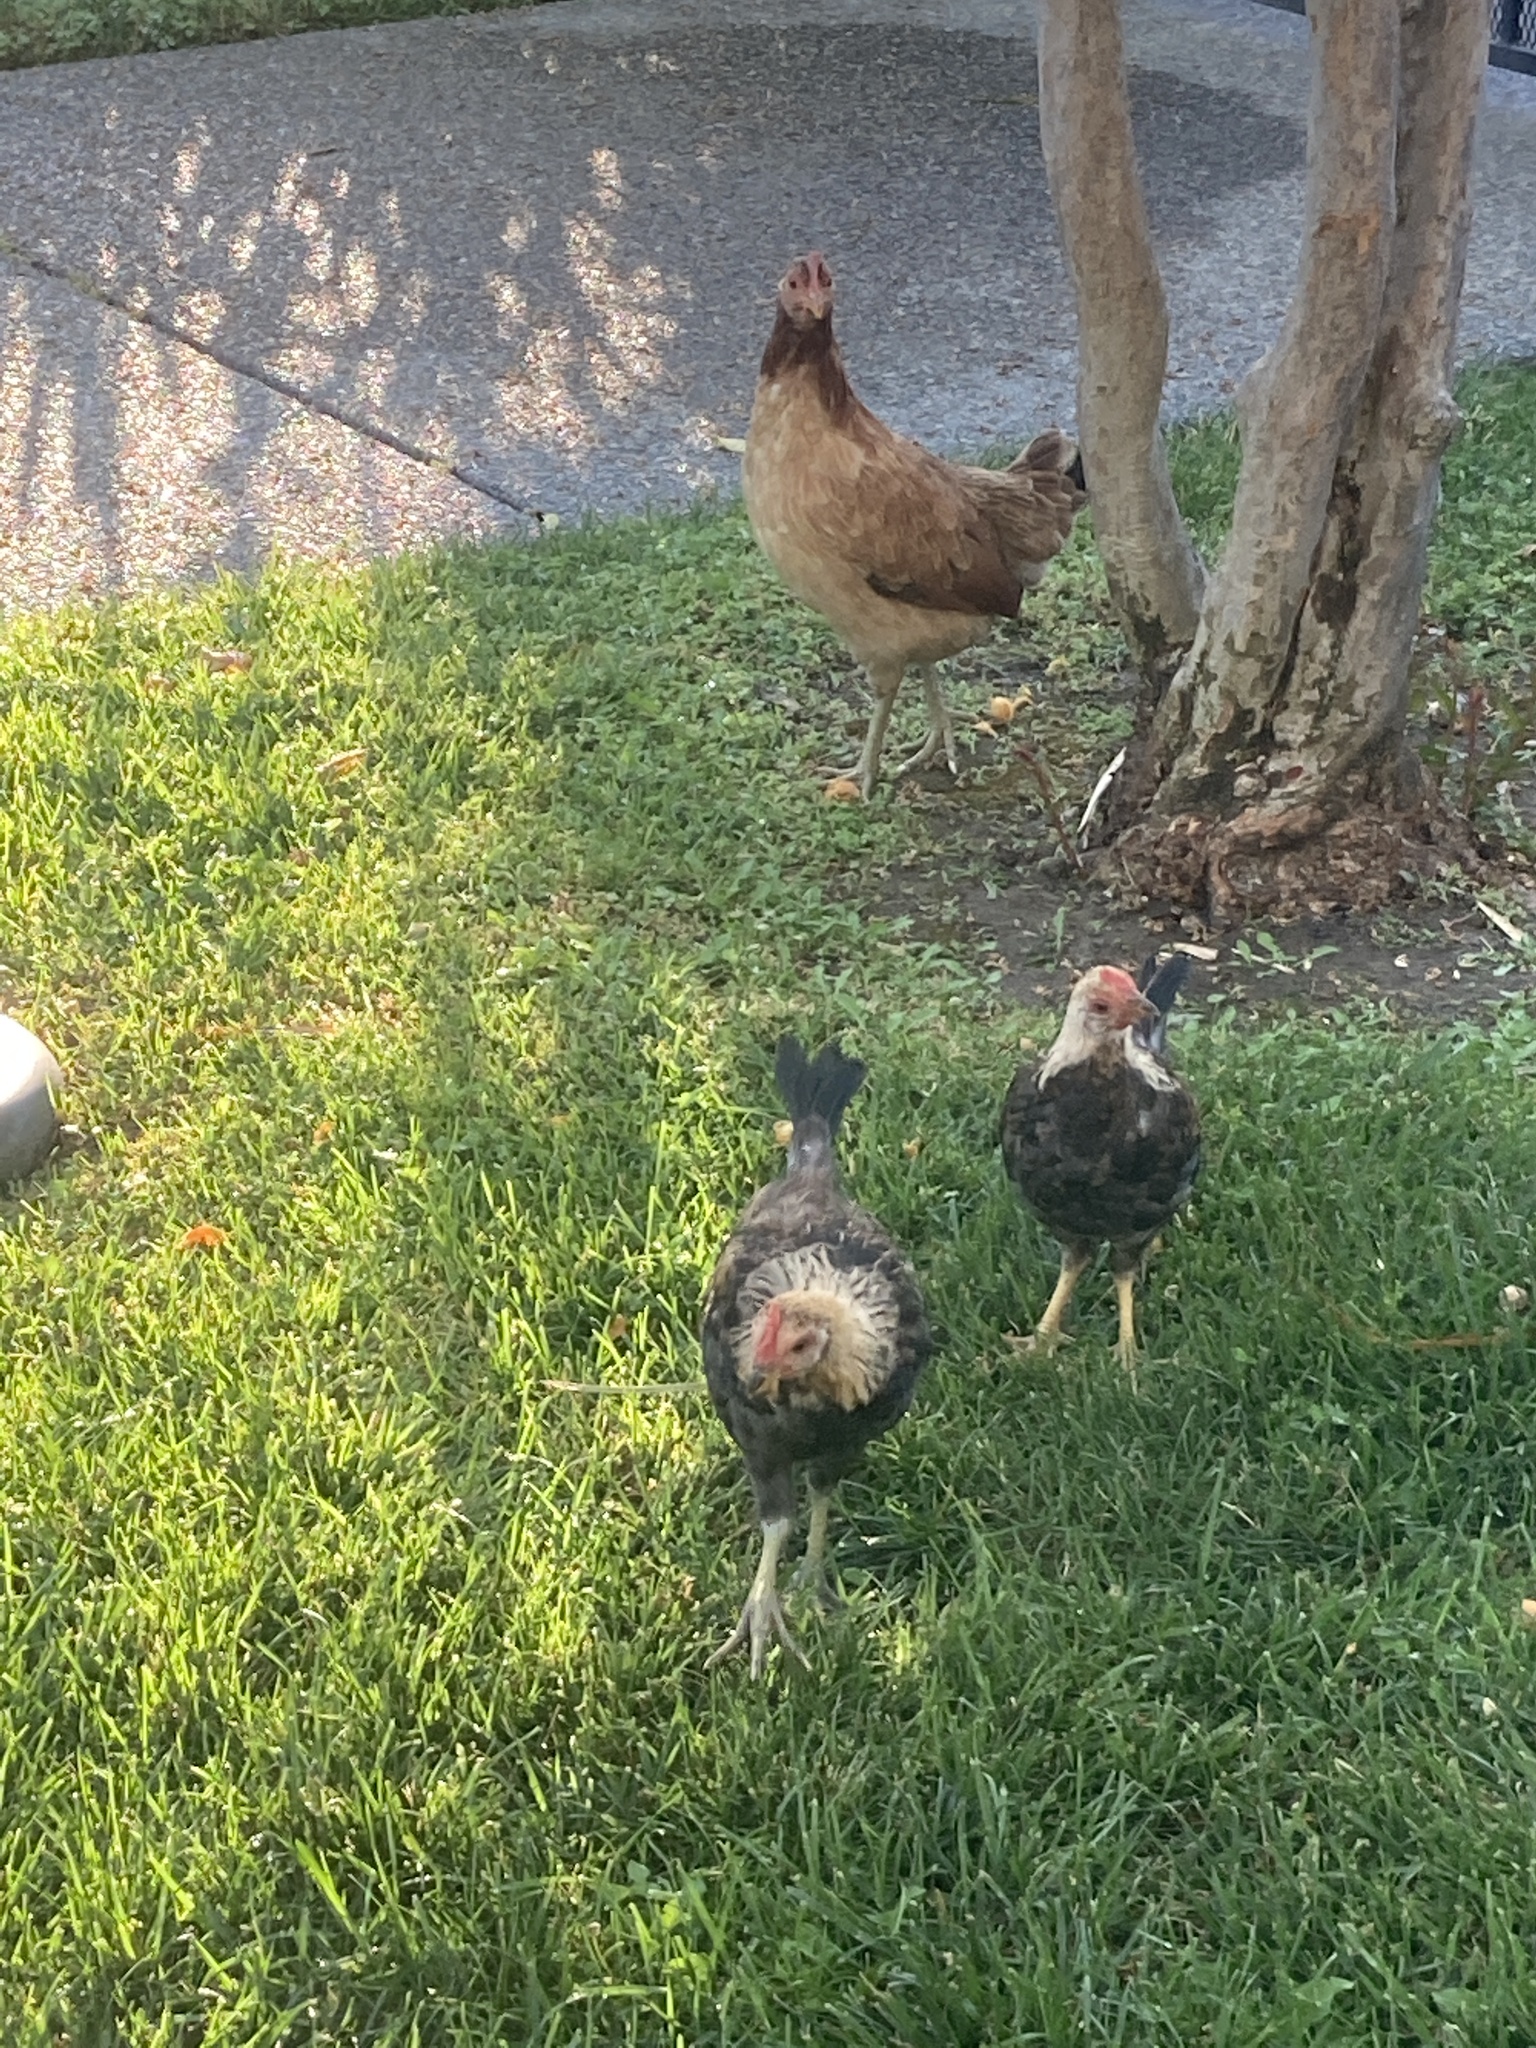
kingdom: Animalia
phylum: Chordata
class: Aves
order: Galliformes
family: Phasianidae
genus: Gallus
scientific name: Gallus gallus
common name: Red junglefowl
